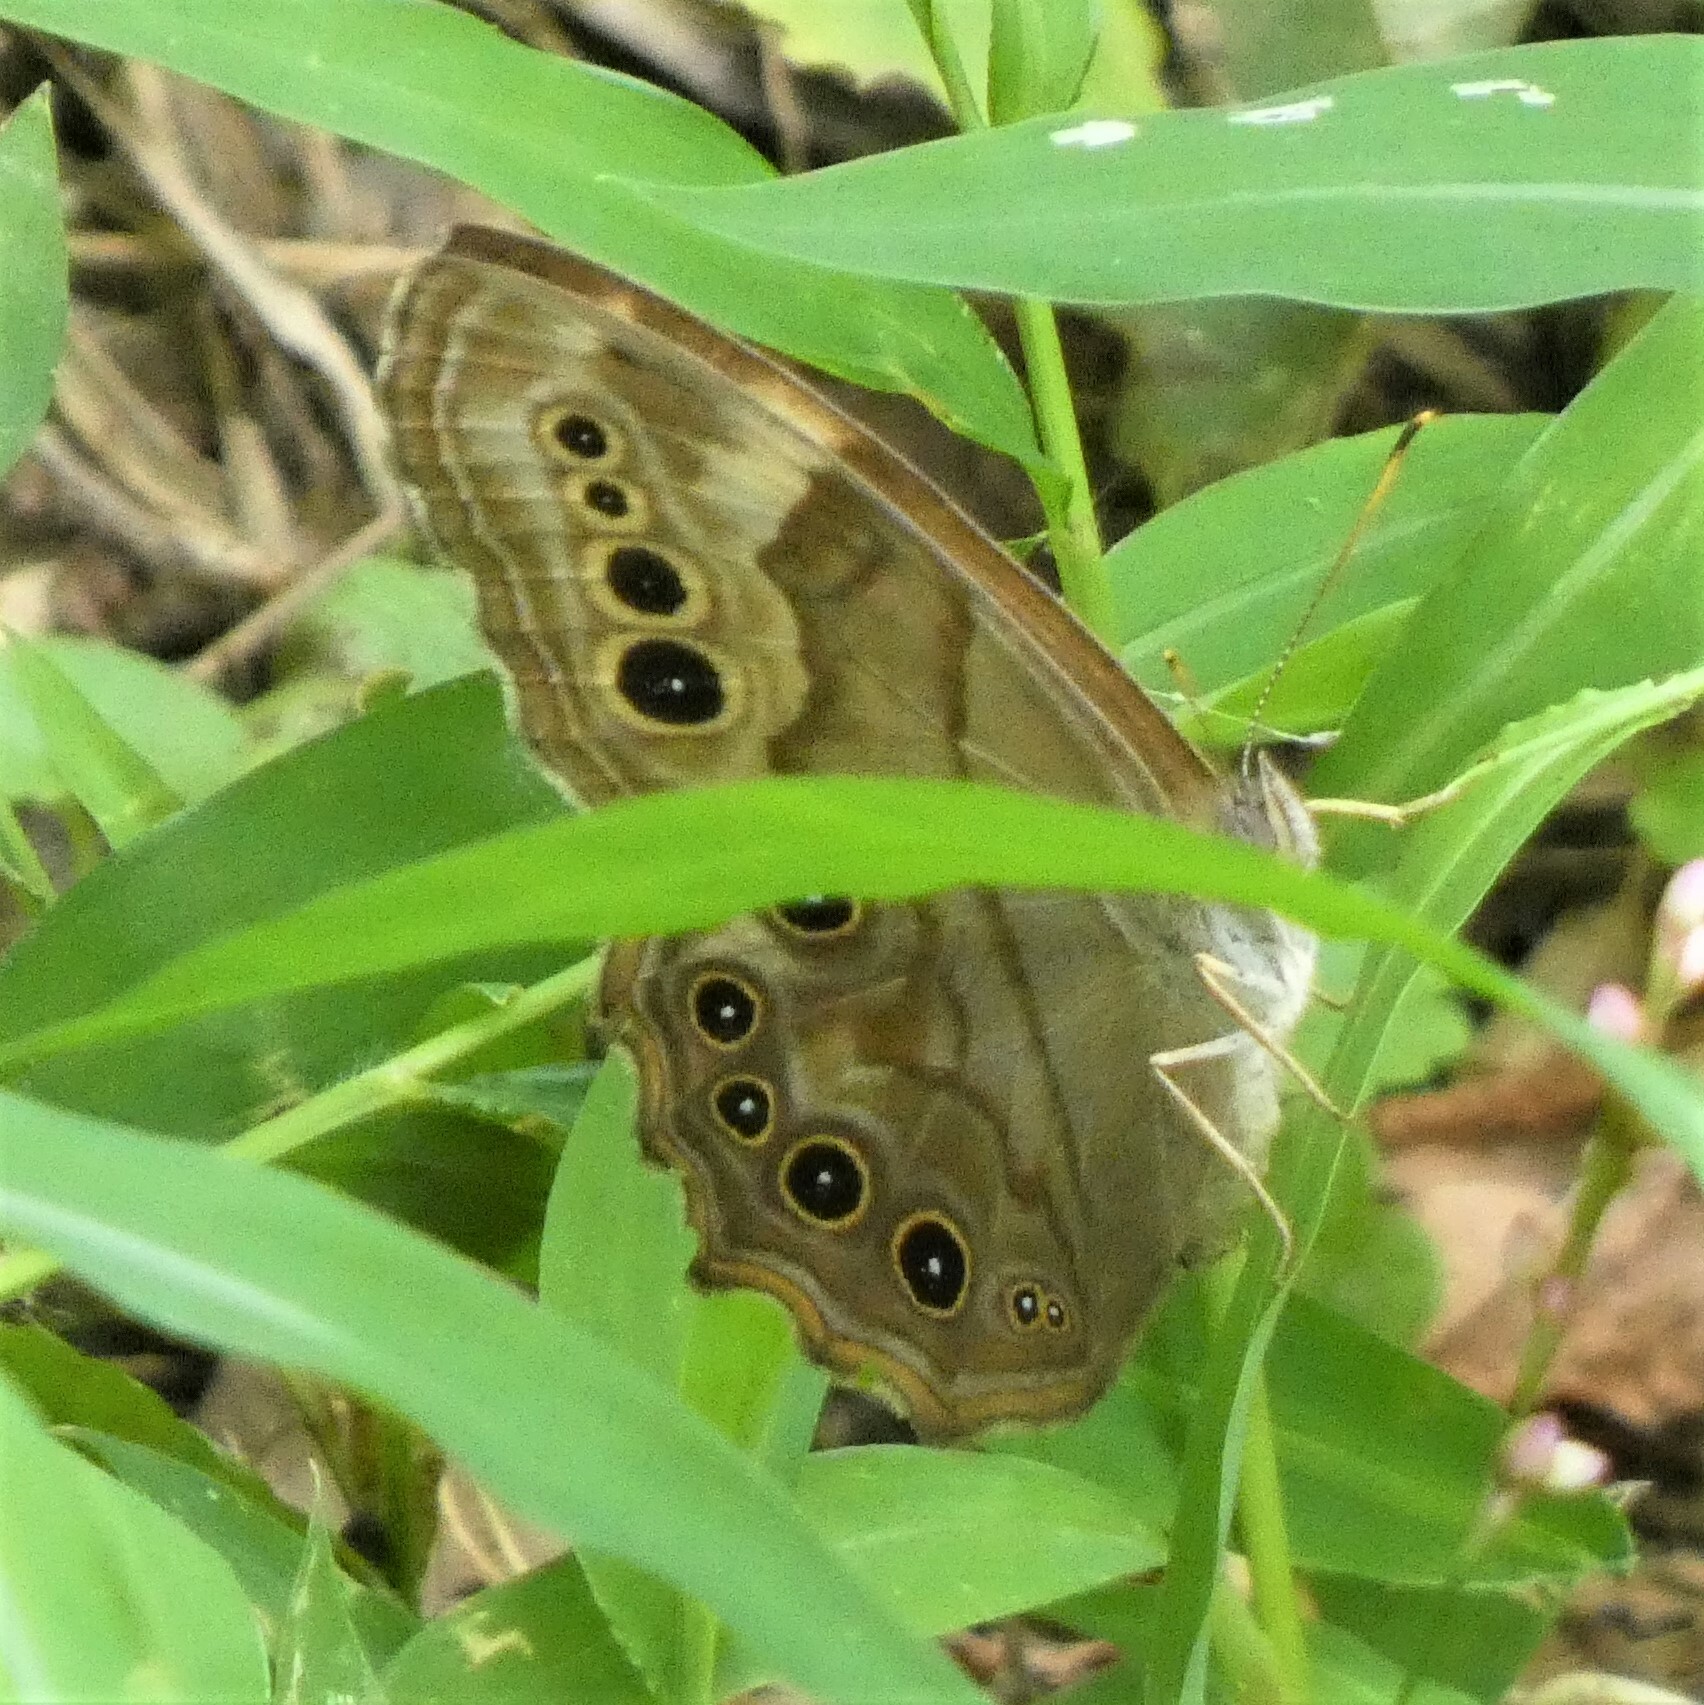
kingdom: Animalia
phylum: Arthropoda
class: Insecta
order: Lepidoptera
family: Nymphalidae
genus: Lethe
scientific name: Lethe anthedon
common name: Northern pearly-eye
